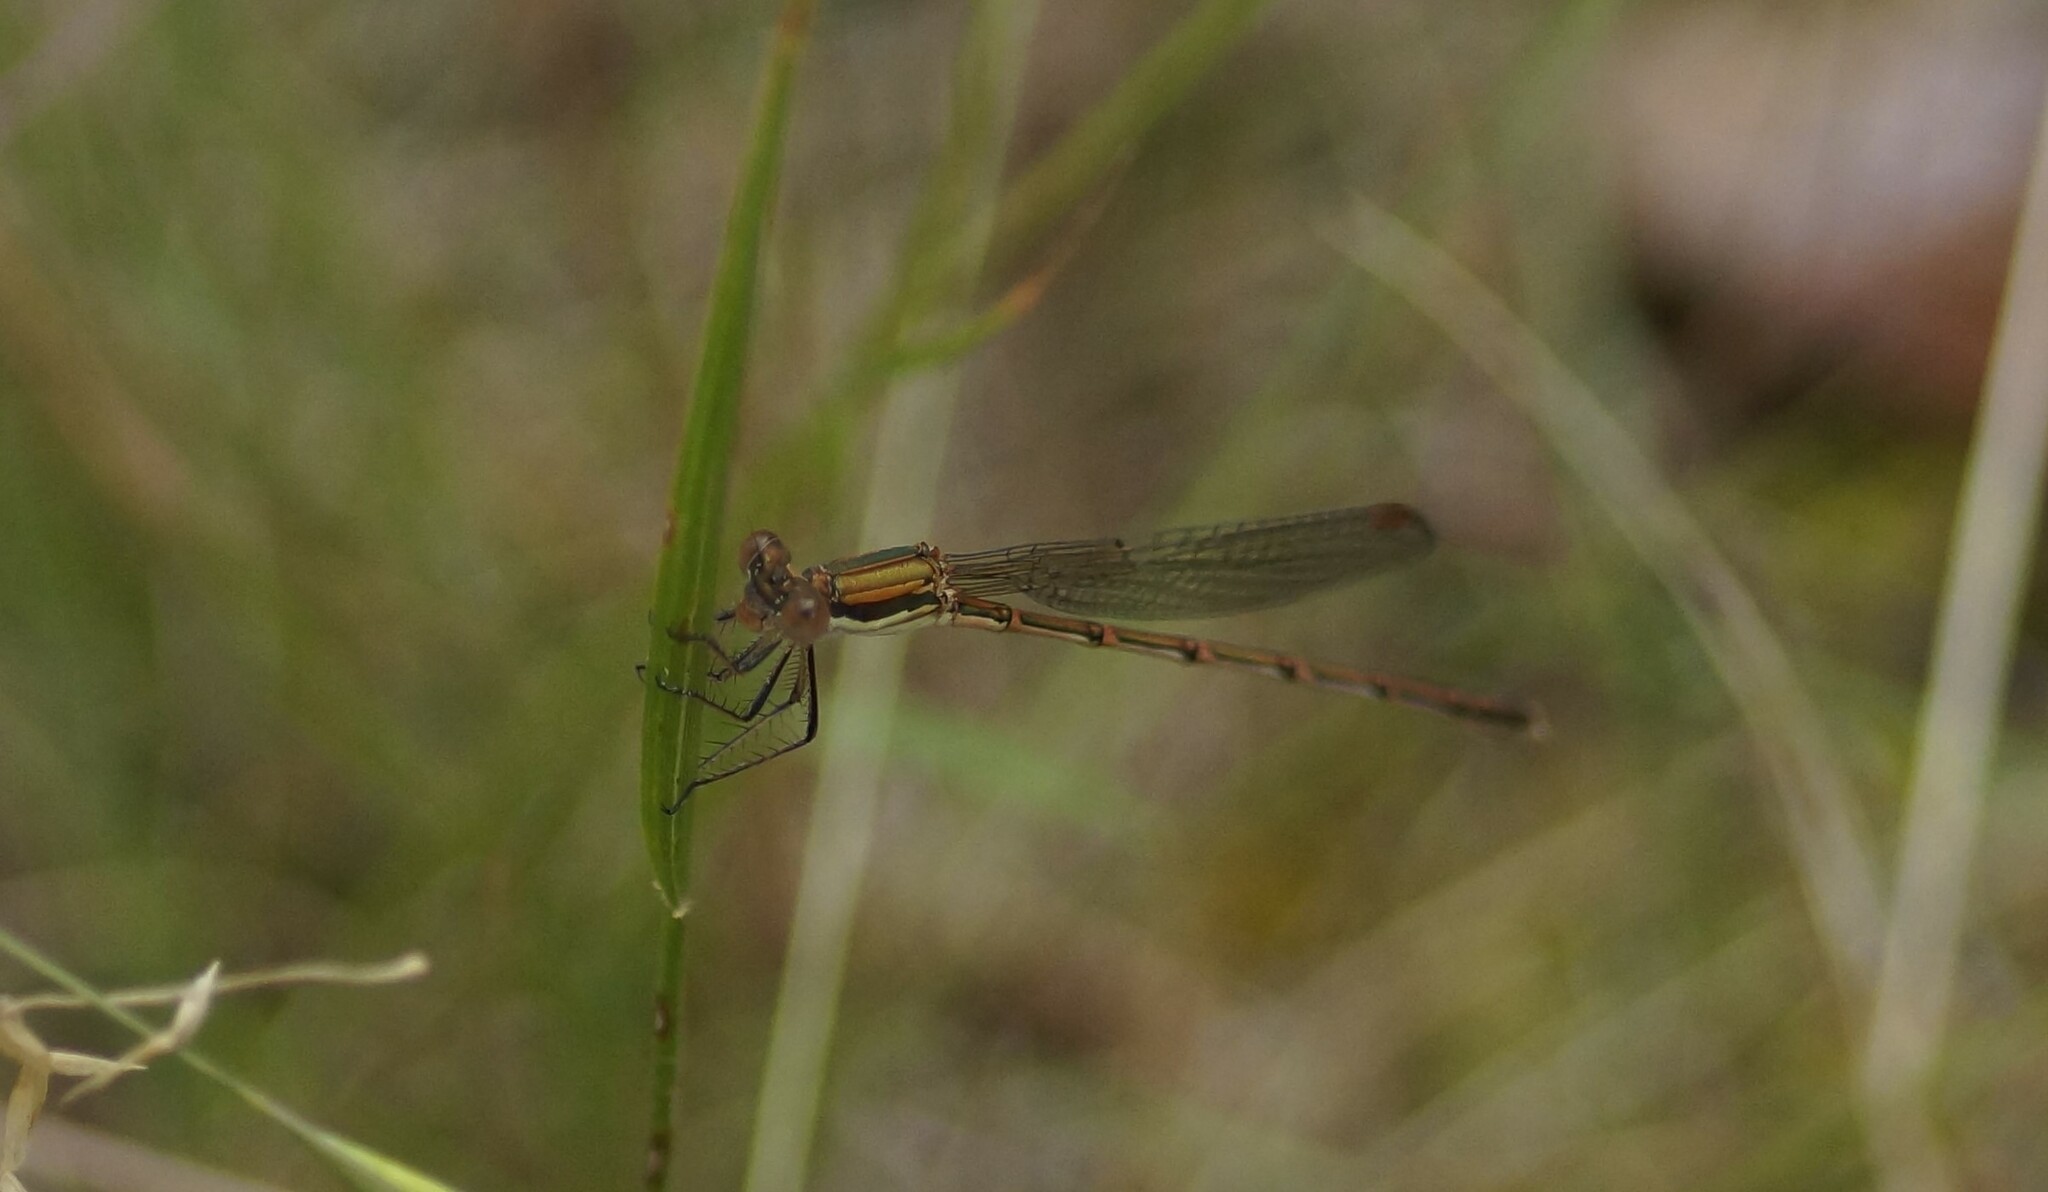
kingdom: Animalia
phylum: Arthropoda
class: Insecta
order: Odonata
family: Lestidae
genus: Austrolestes
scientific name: Austrolestes analis
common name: Slender ringtail
